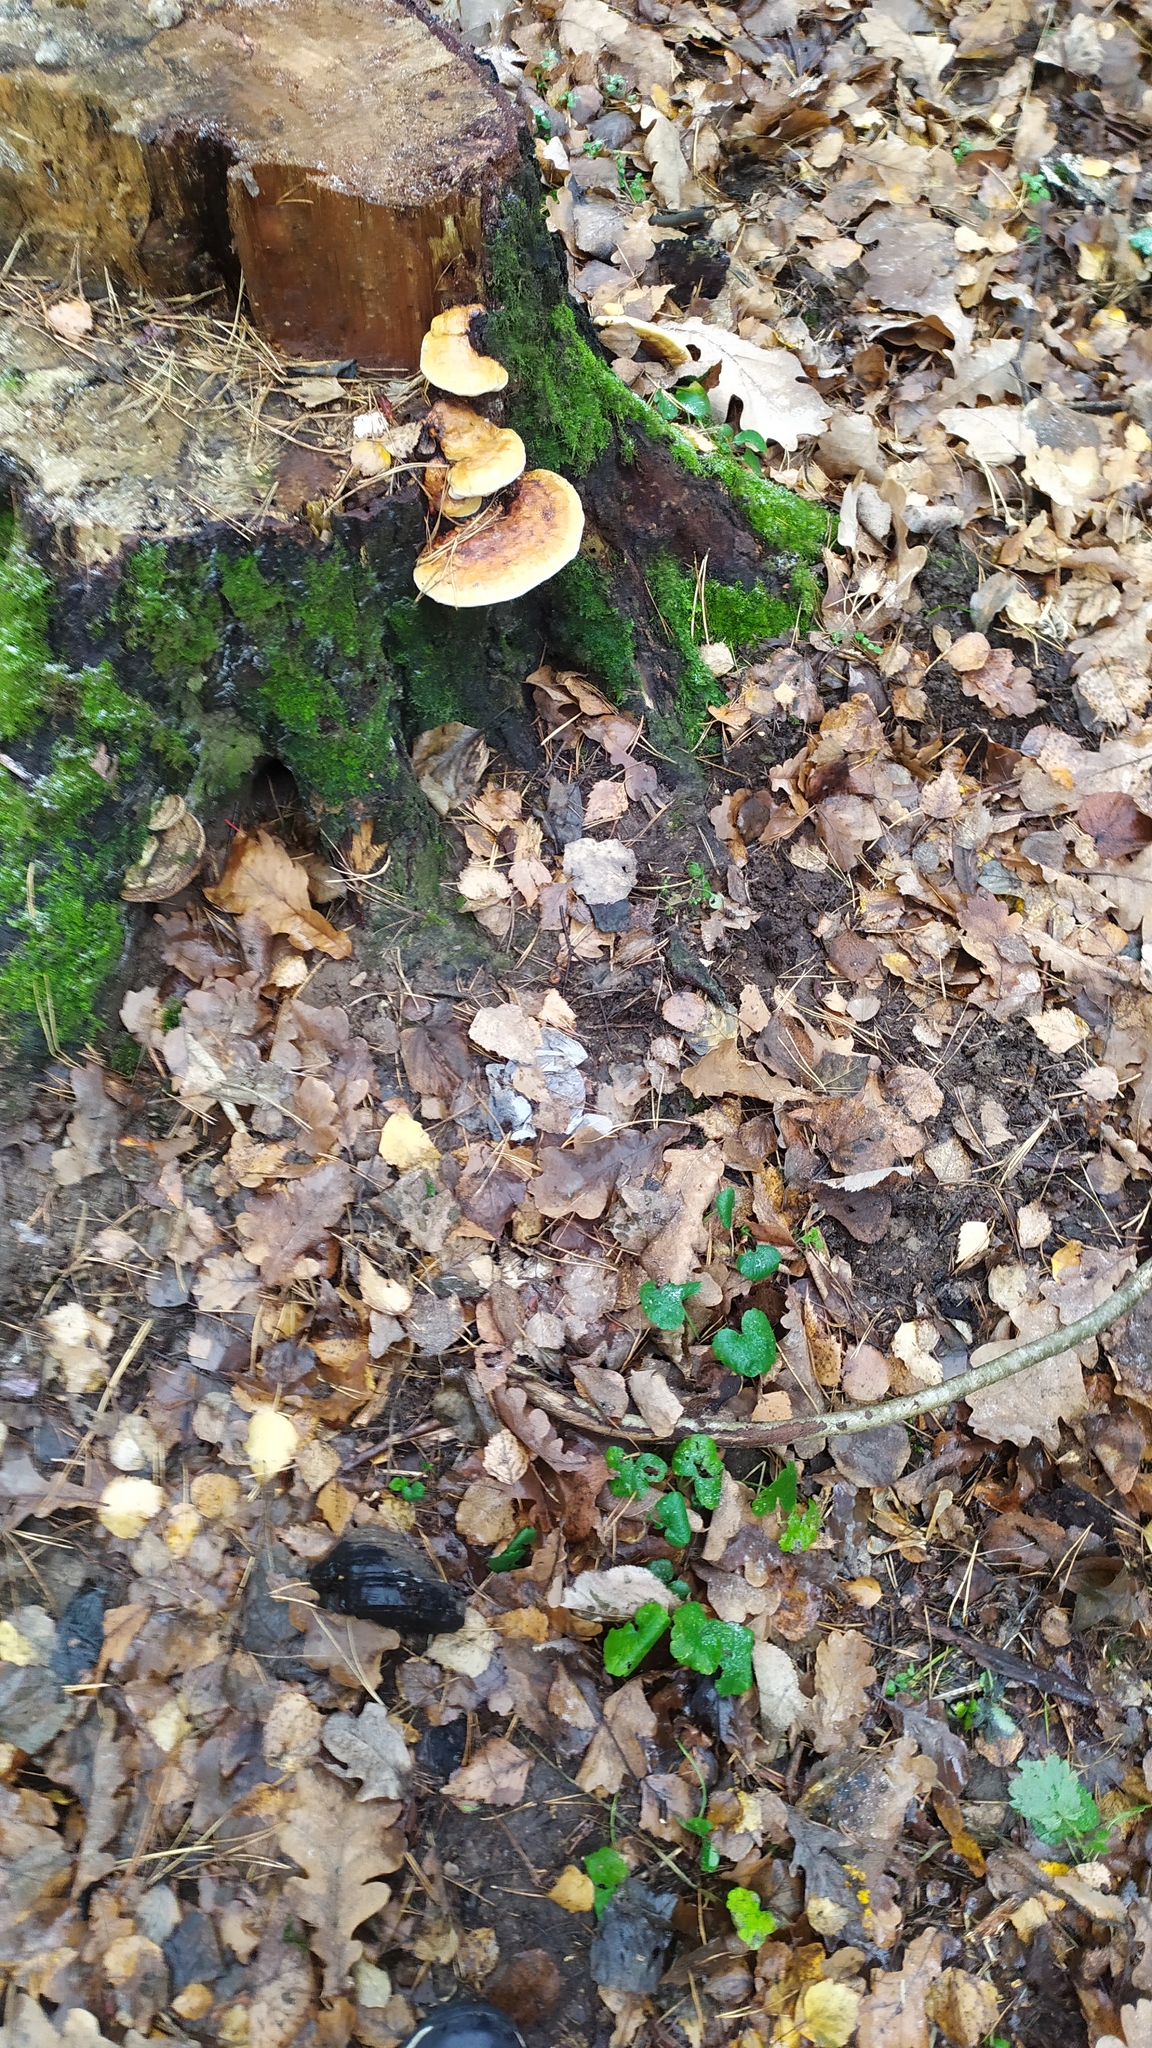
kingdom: Fungi
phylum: Basidiomycota
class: Agaricomycetes
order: Polyporales
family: Fomitopsidaceae
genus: Fomitopsis
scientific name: Fomitopsis pinicola
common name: Red-belted bracket
